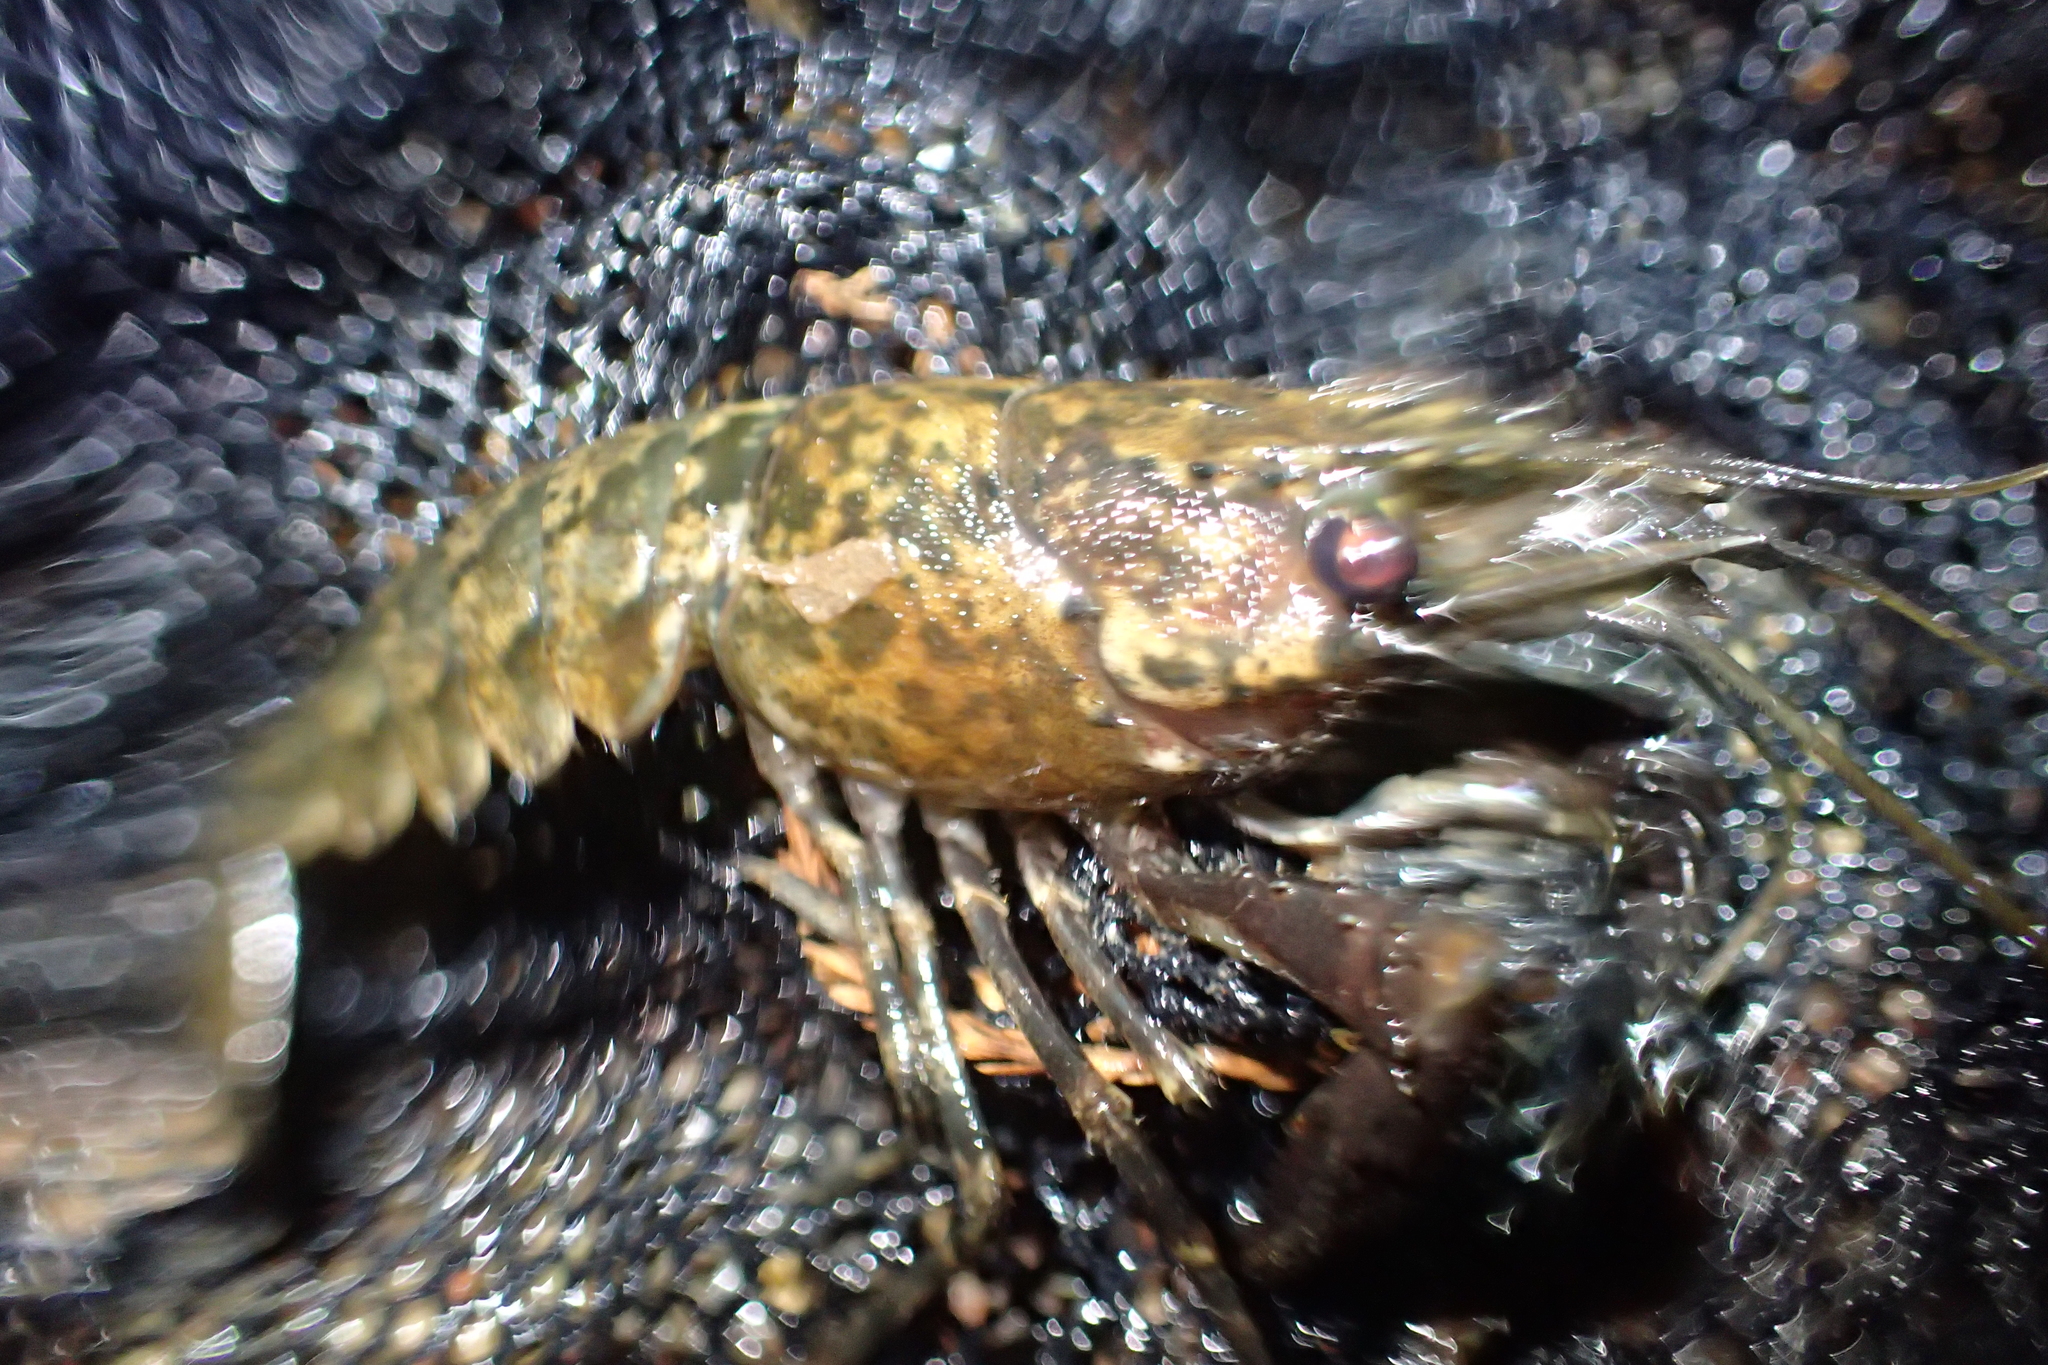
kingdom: Animalia
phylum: Arthropoda
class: Malacostraca
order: Decapoda
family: Parastacidae
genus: Paranephrops
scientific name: Paranephrops planifrons
